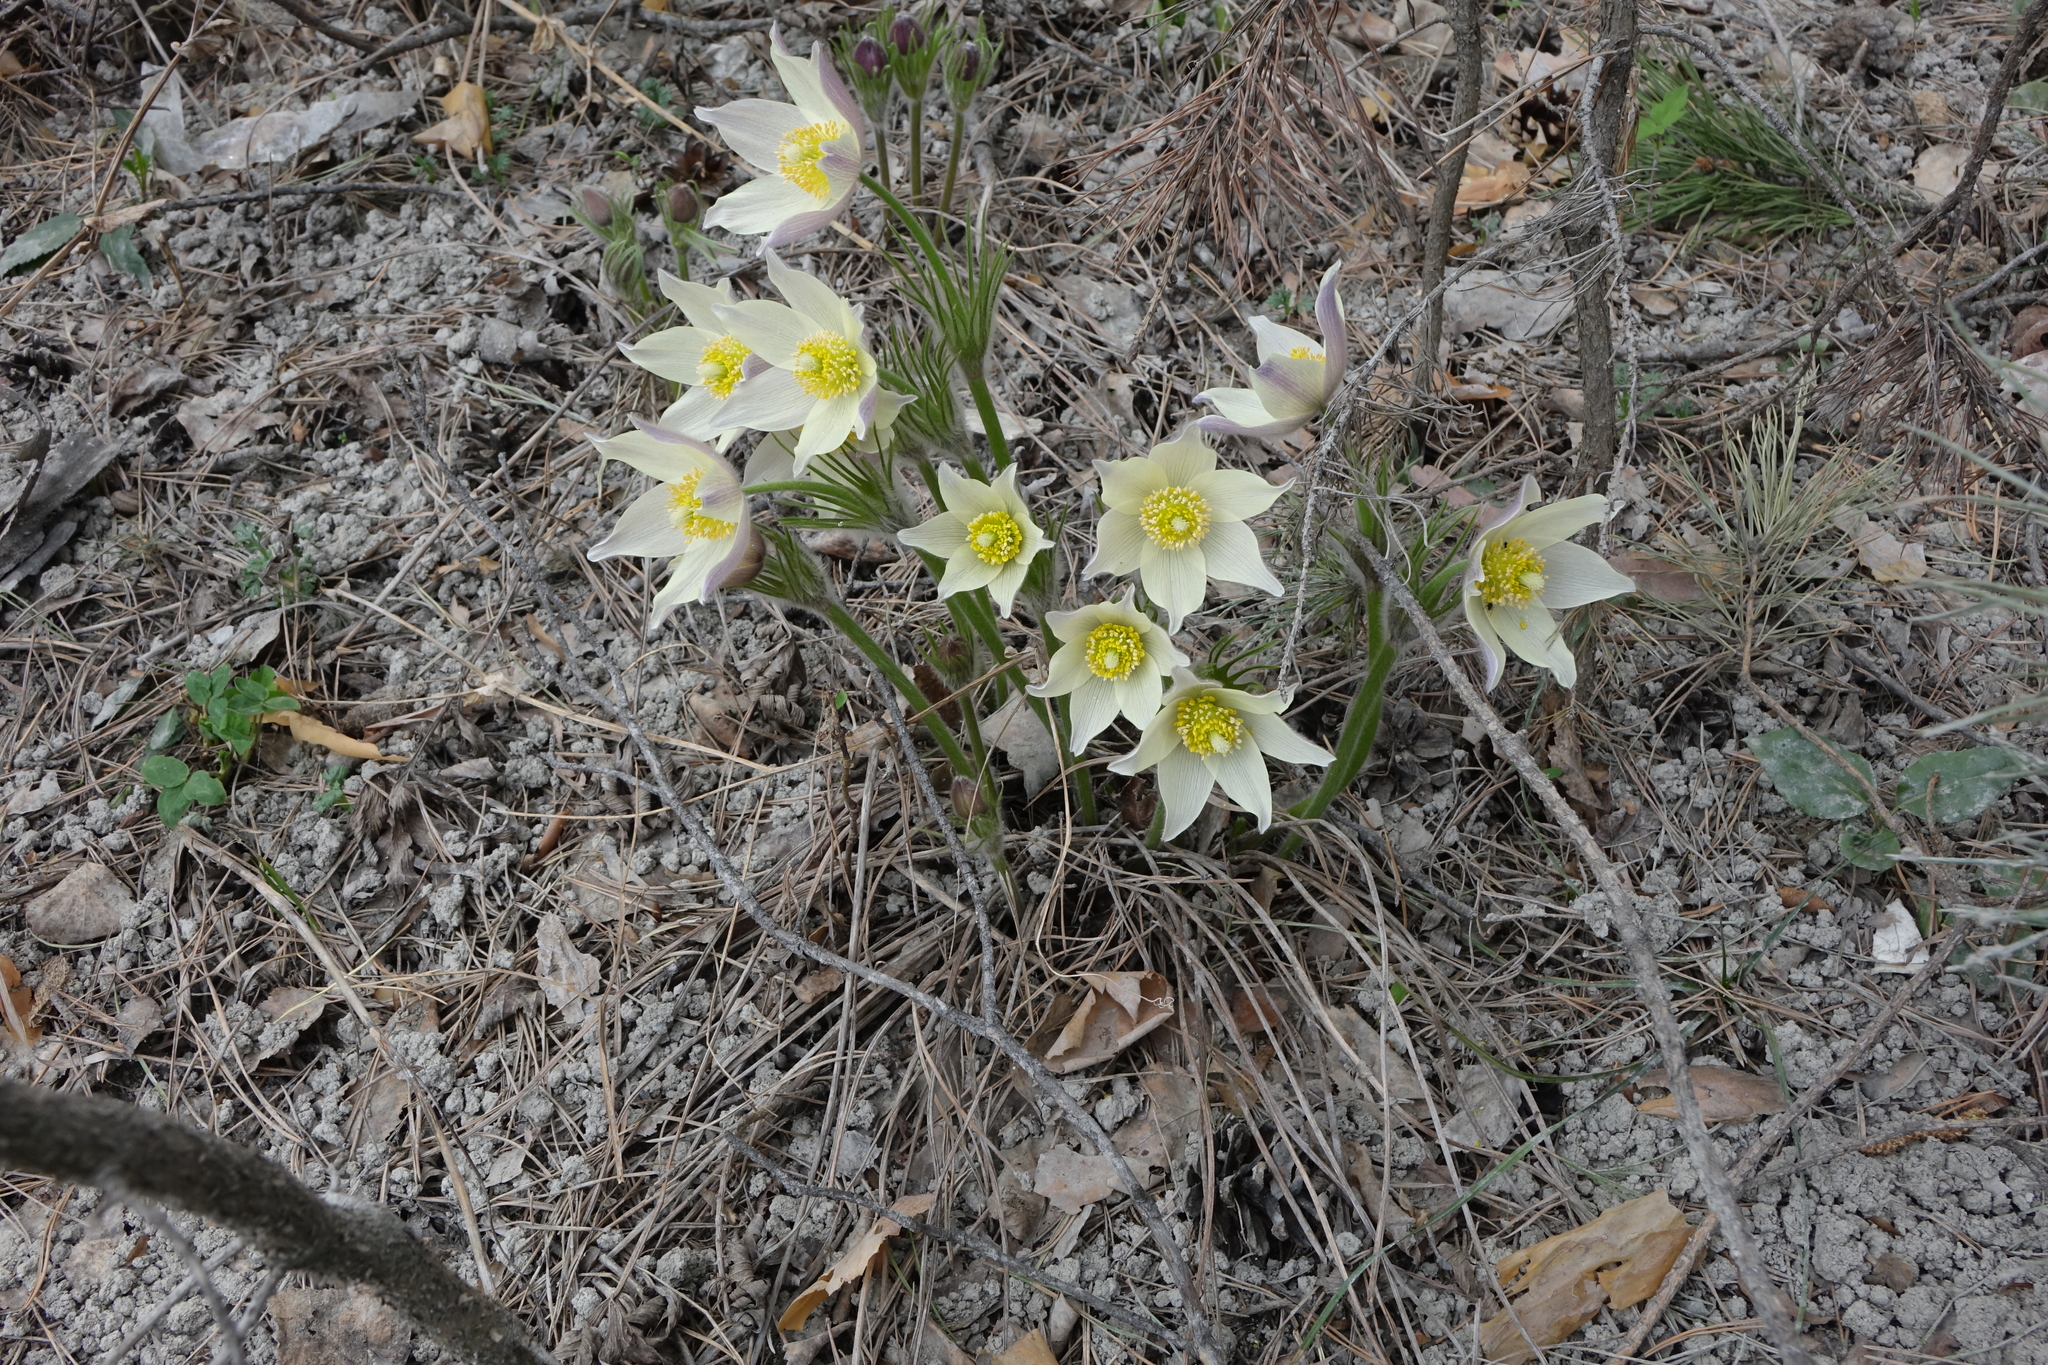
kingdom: Plantae
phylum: Tracheophyta
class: Magnoliopsida
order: Ranunculales
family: Ranunculaceae
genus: Pulsatilla
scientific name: Pulsatilla patens
